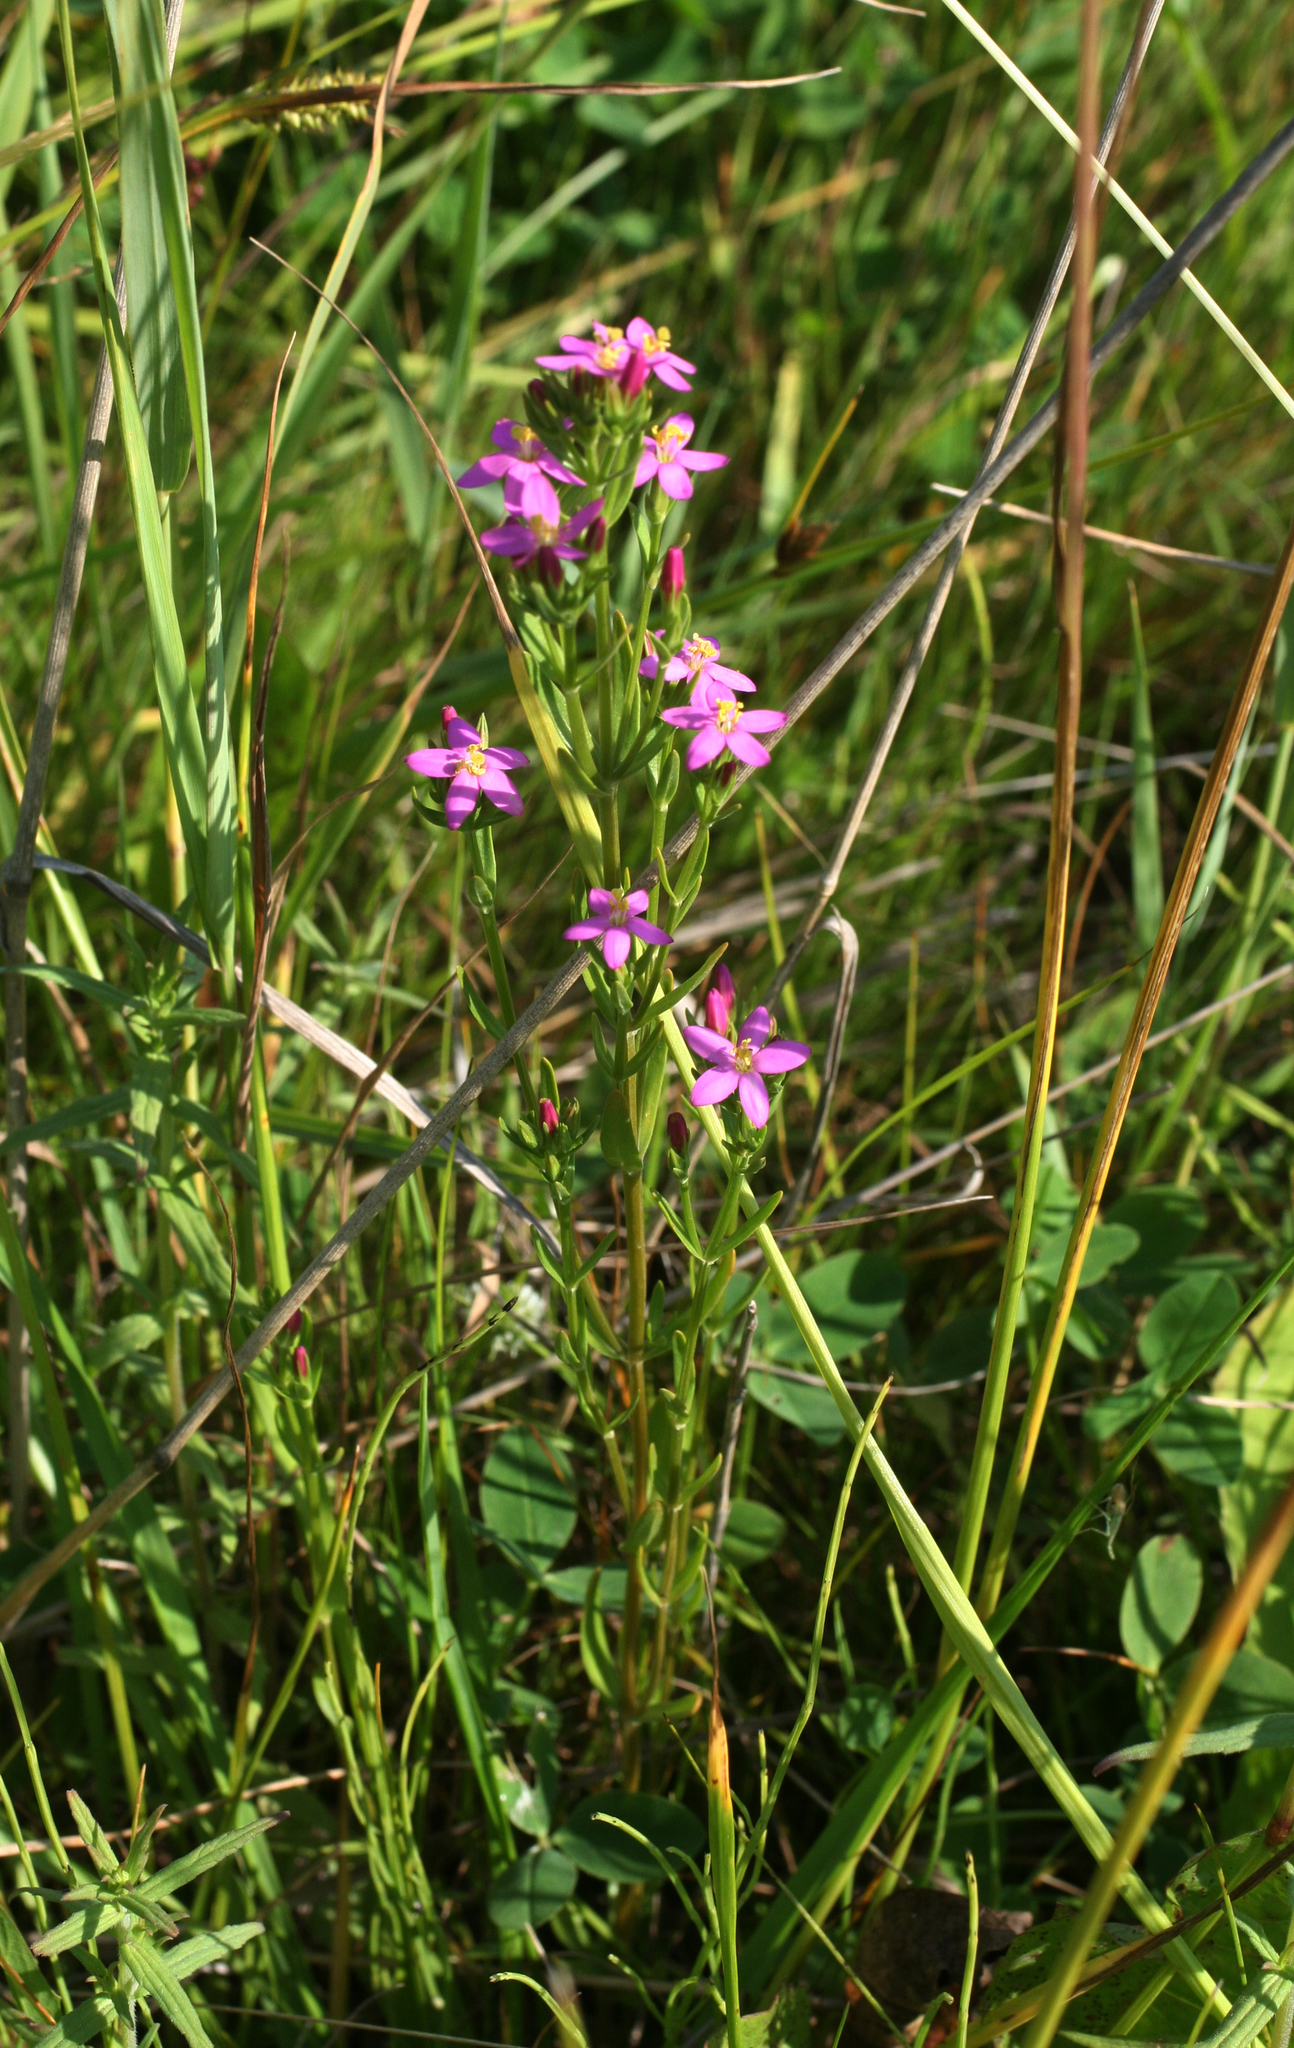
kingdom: Plantae
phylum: Tracheophyta
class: Magnoliopsida
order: Gentianales
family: Gentianaceae
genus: Centaurium
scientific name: Centaurium pulchellum
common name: Lesser centaury
